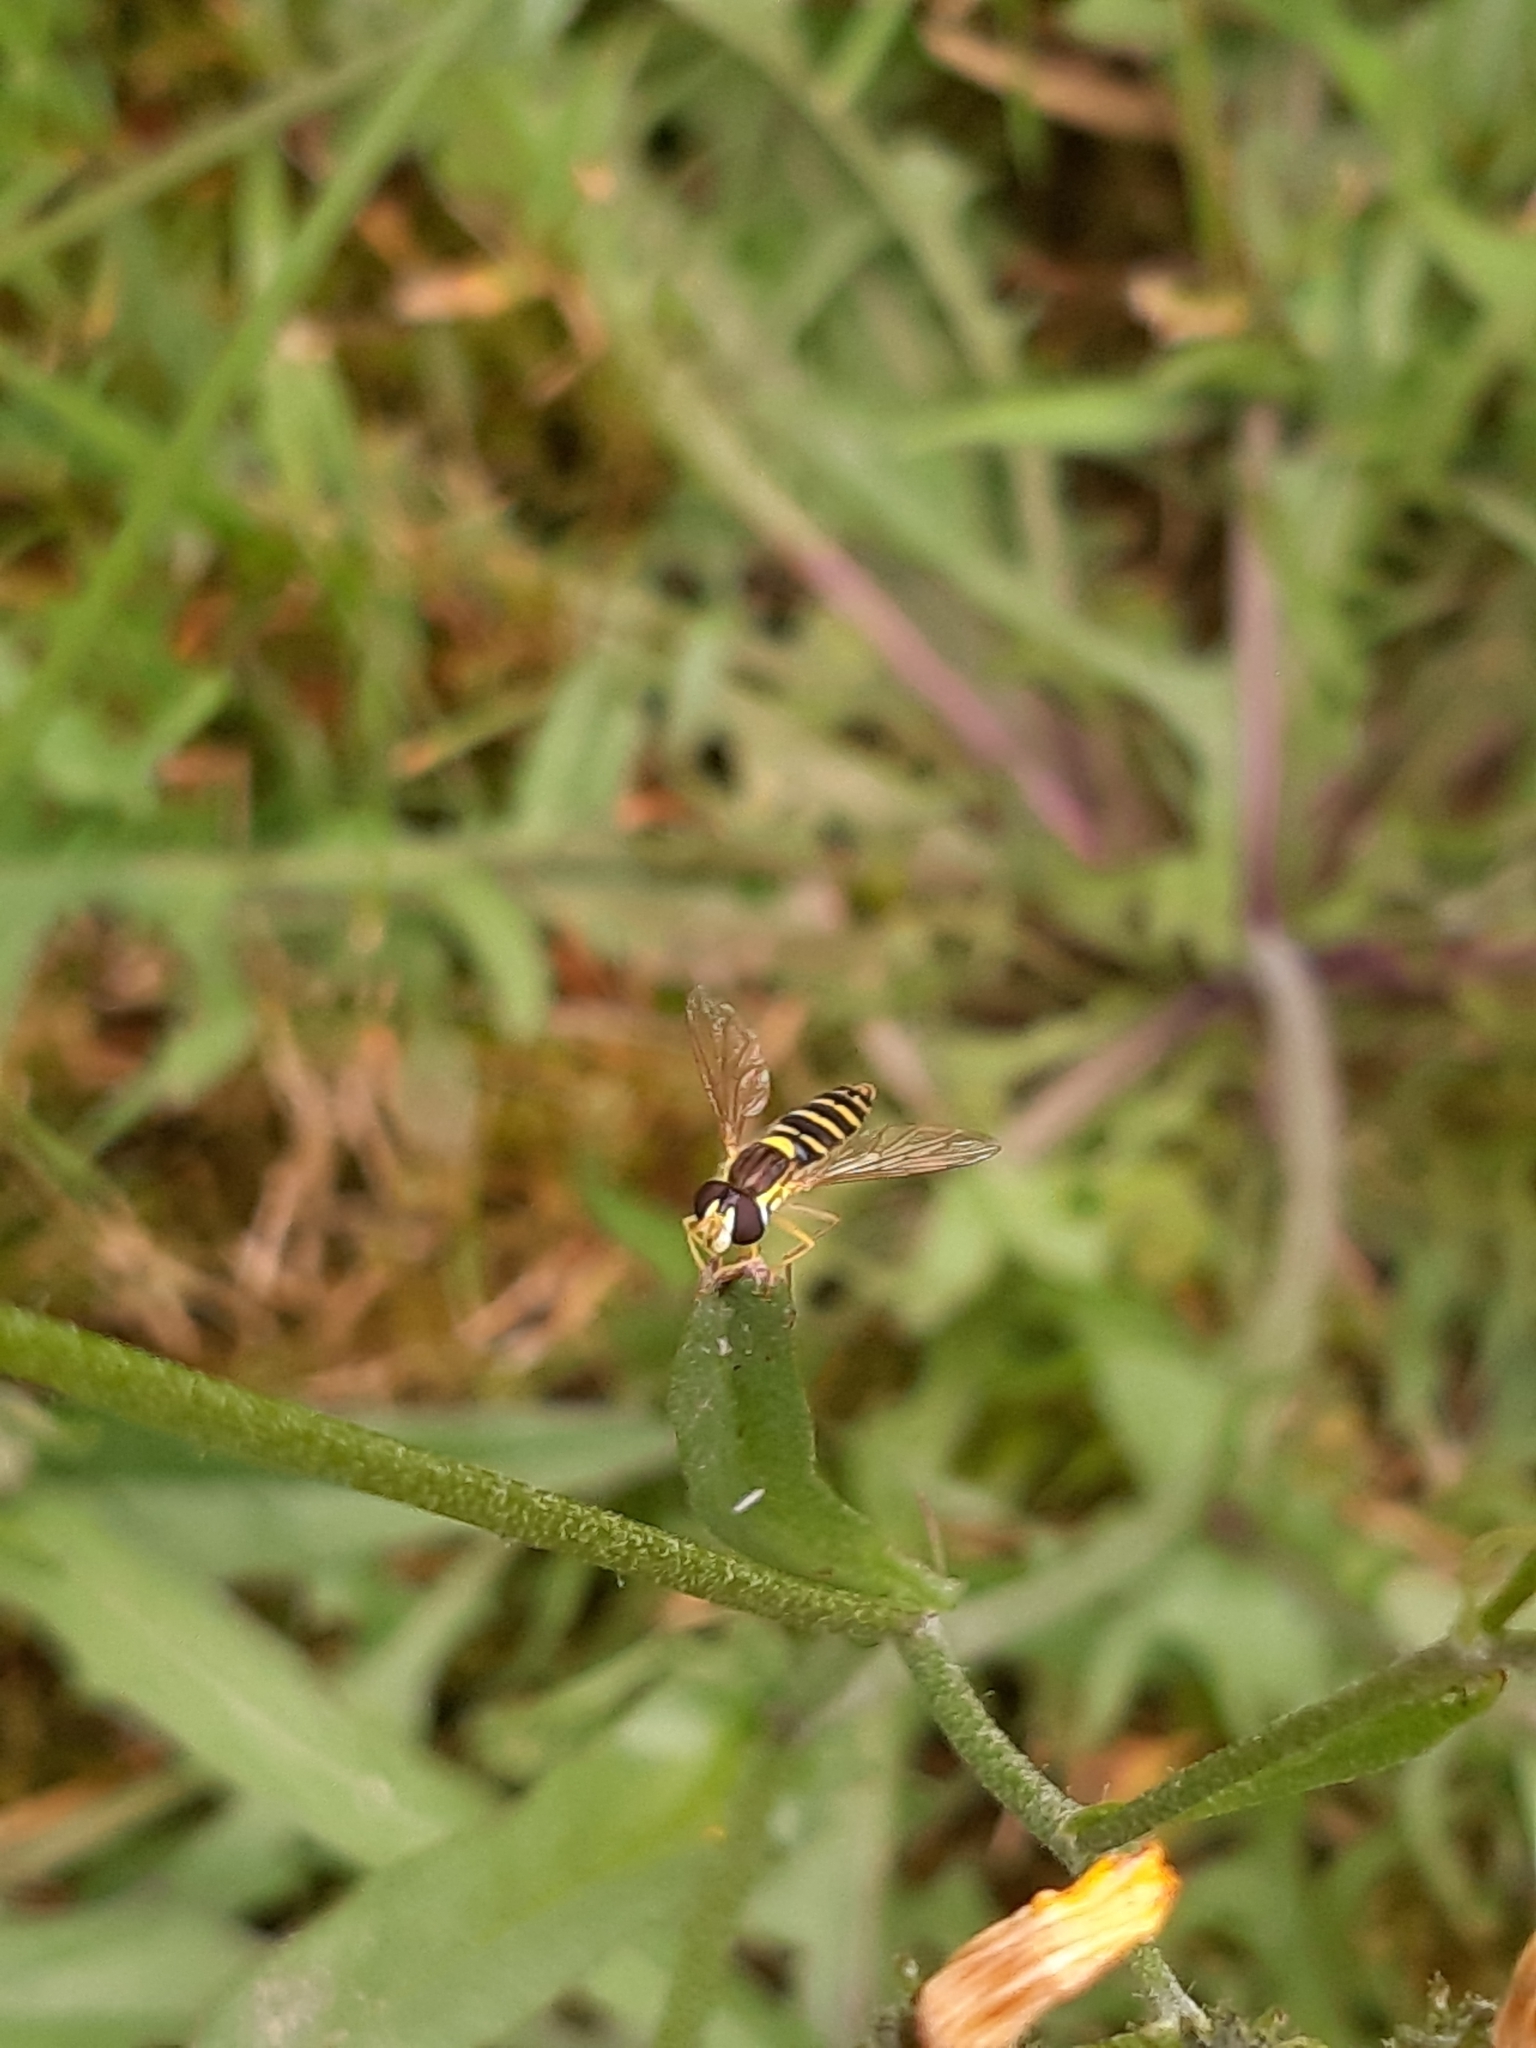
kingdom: Animalia
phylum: Arthropoda
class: Insecta
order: Diptera
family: Syrphidae
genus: Sphaerophoria
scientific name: Sphaerophoria
